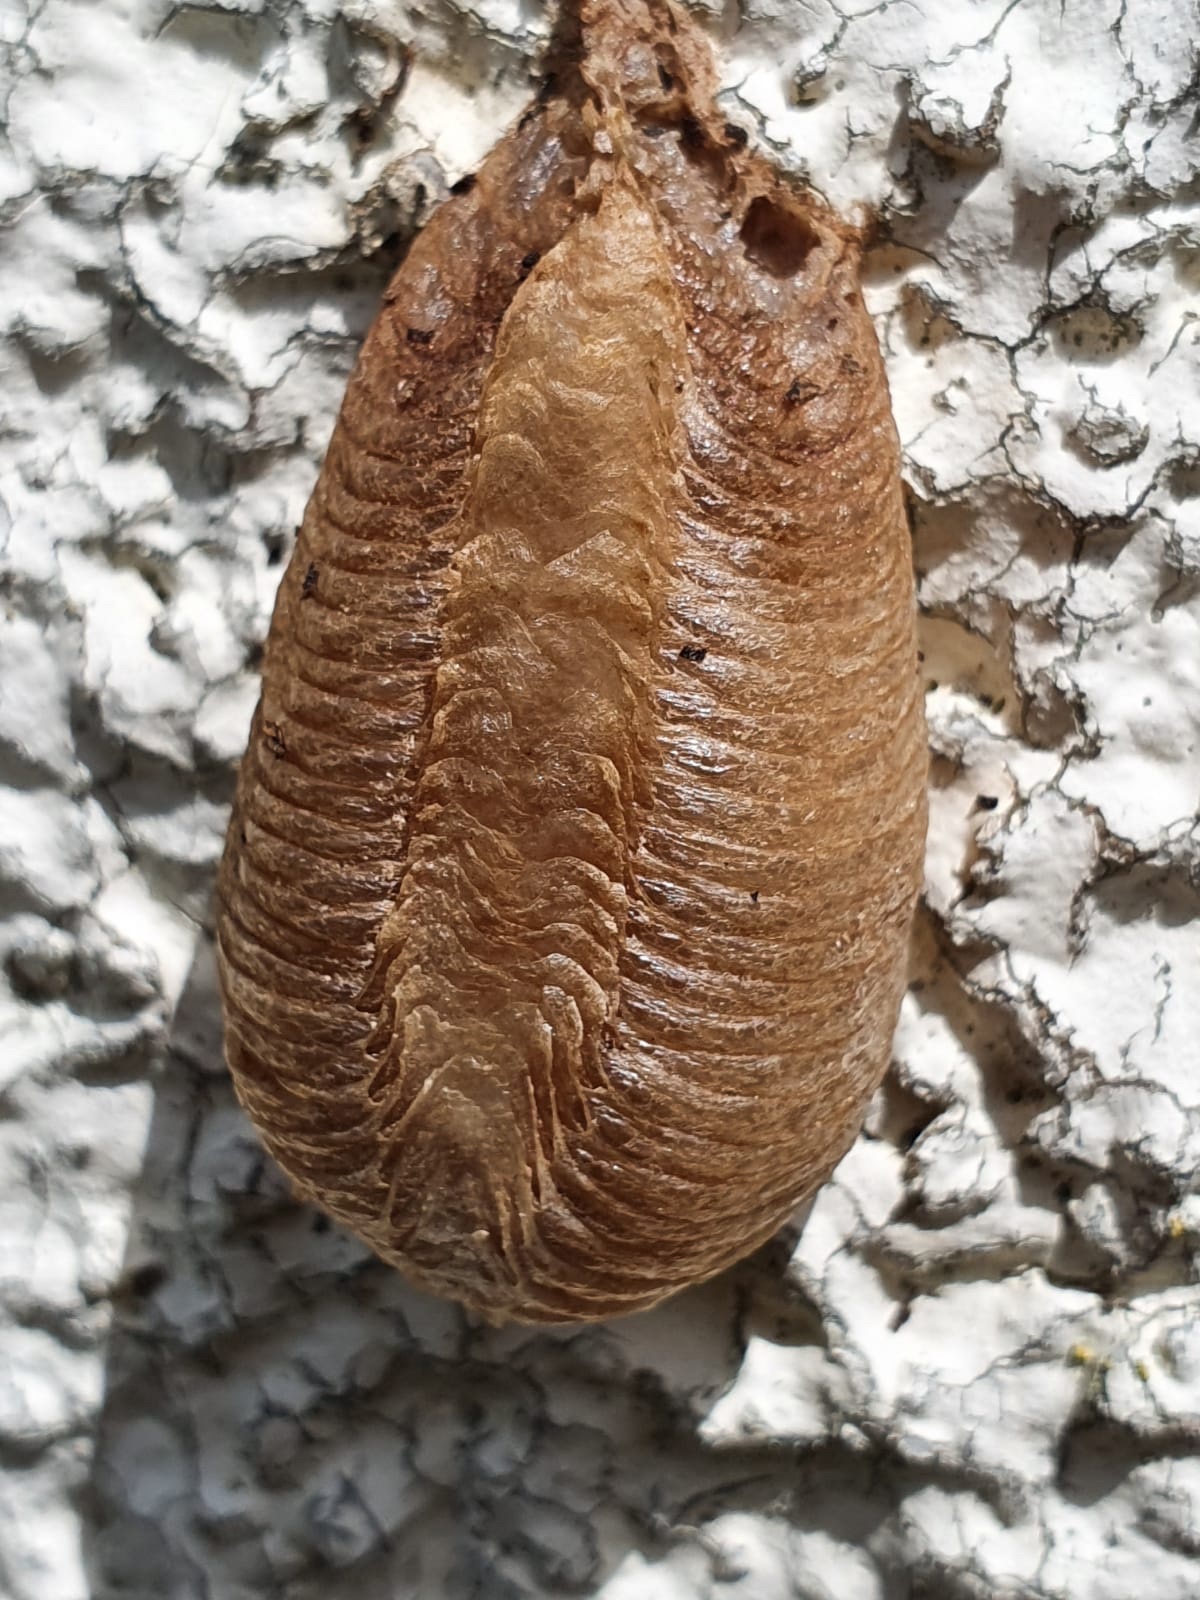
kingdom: Animalia
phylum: Arthropoda
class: Insecta
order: Mantodea
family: Mantidae
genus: Mantis
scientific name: Mantis religiosa
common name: Praying mantis
